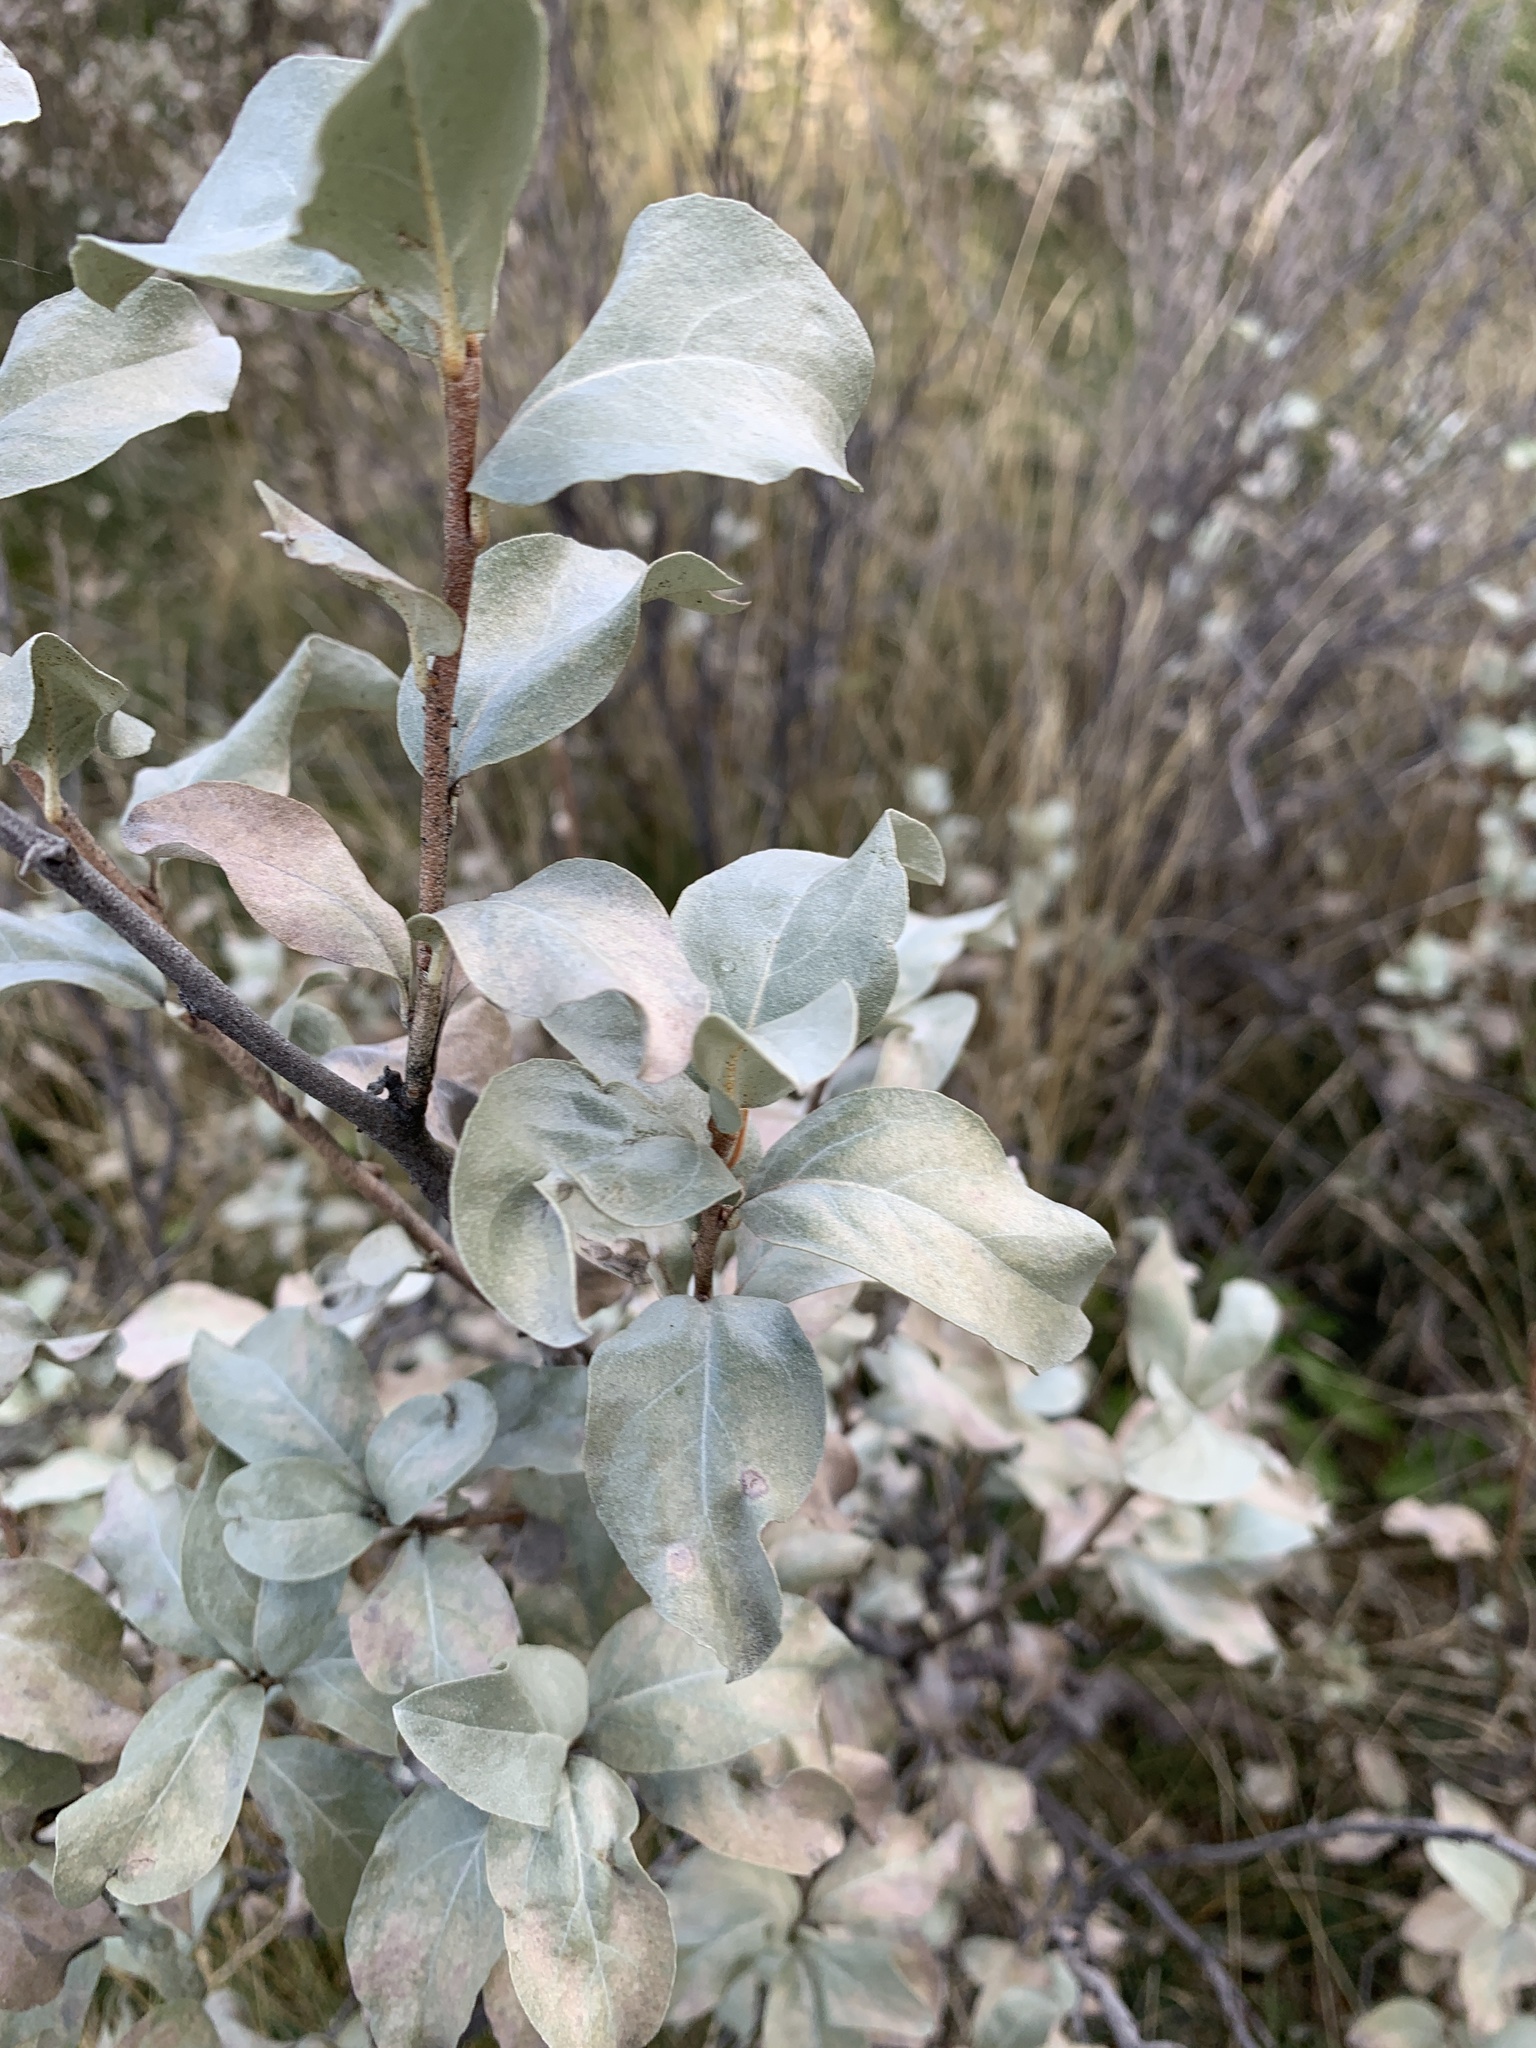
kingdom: Plantae
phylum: Tracheophyta
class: Magnoliopsida
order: Rosales
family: Elaeagnaceae
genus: Elaeagnus
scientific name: Elaeagnus commutata
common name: Silverberry
